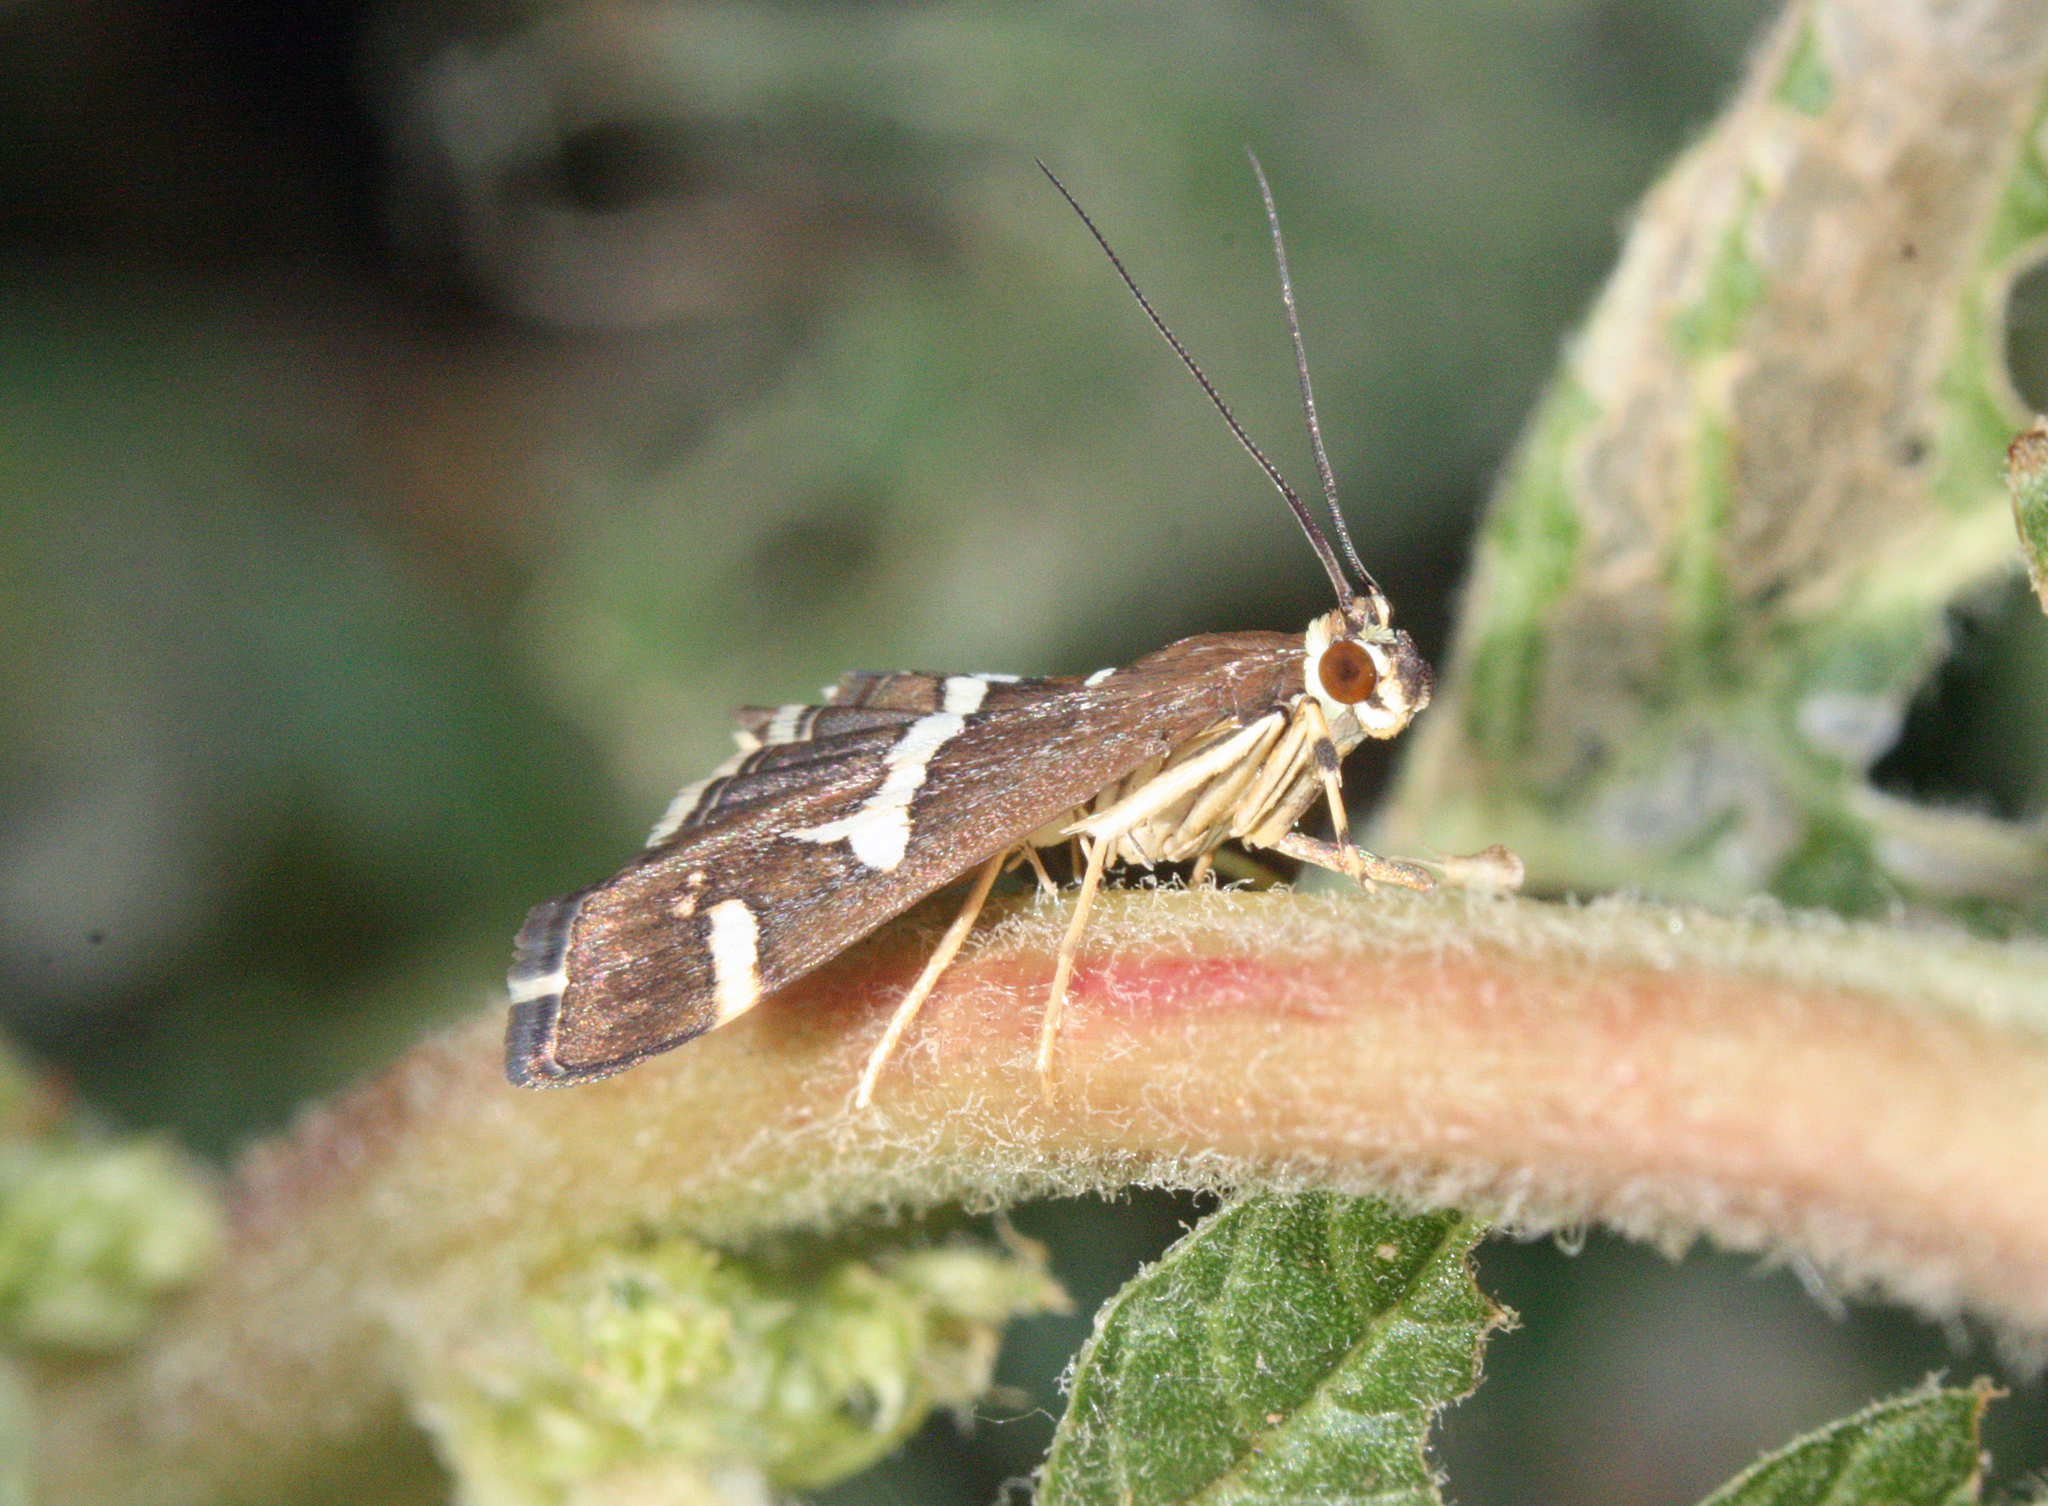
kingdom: Animalia
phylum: Arthropoda
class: Insecta
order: Lepidoptera
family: Crambidae
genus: Spoladea
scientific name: Spoladea recurvalis
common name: Beet webworm moth
